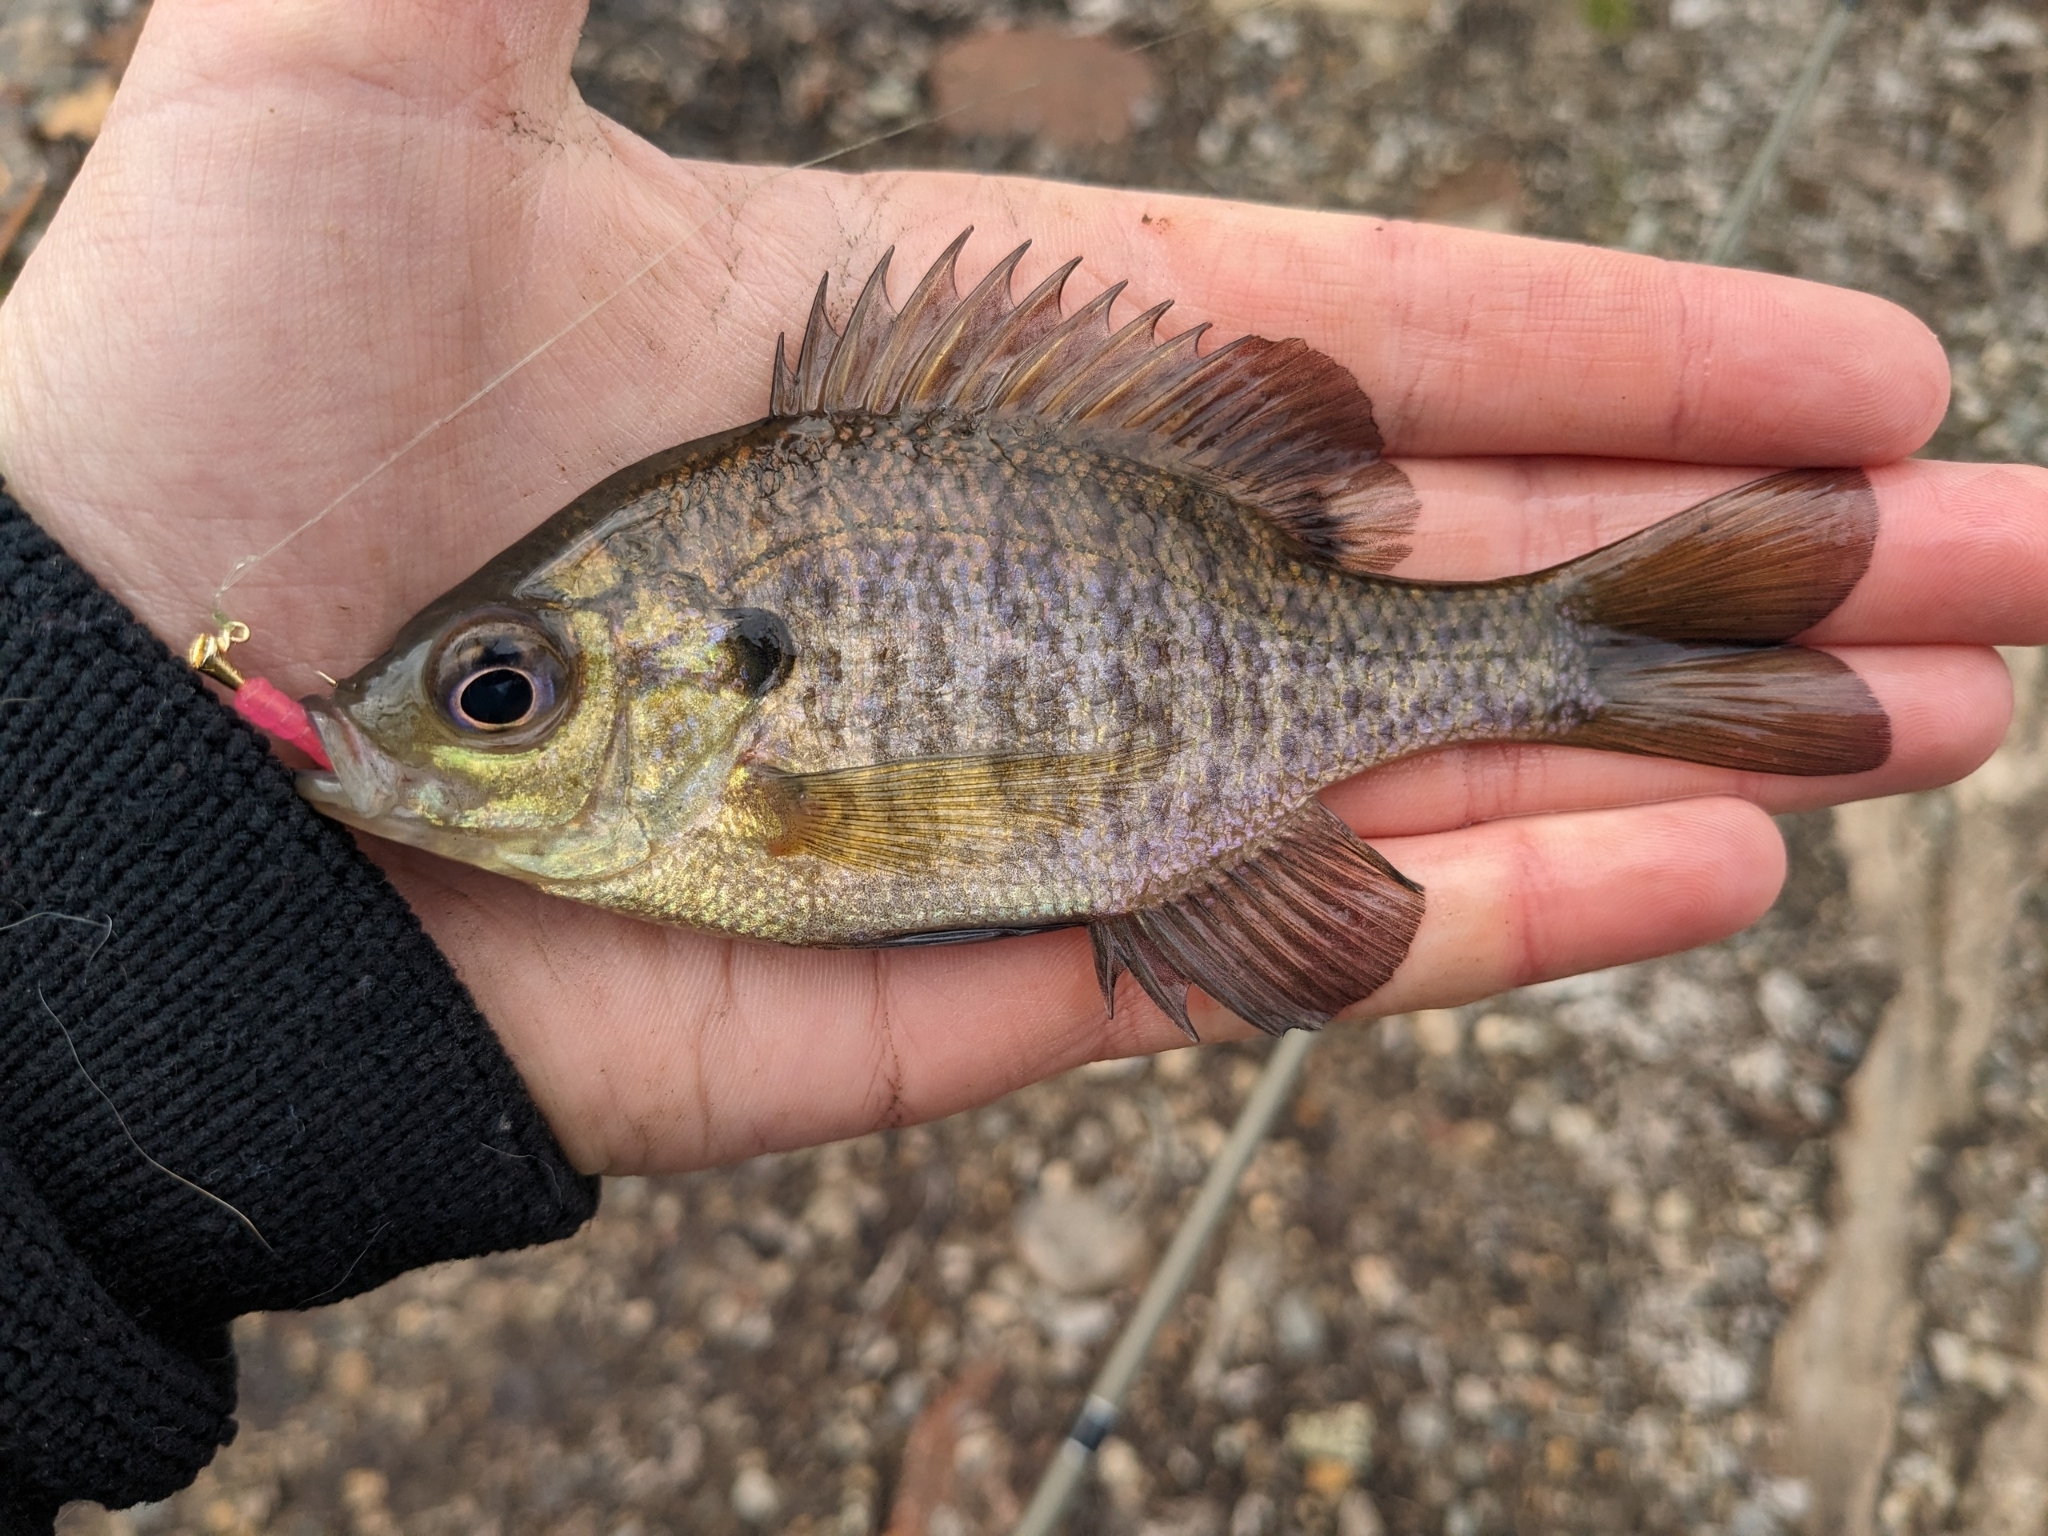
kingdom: Animalia
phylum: Chordata
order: Perciformes
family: Centrarchidae
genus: Lepomis
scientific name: Lepomis macrochirus
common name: Bluegill
